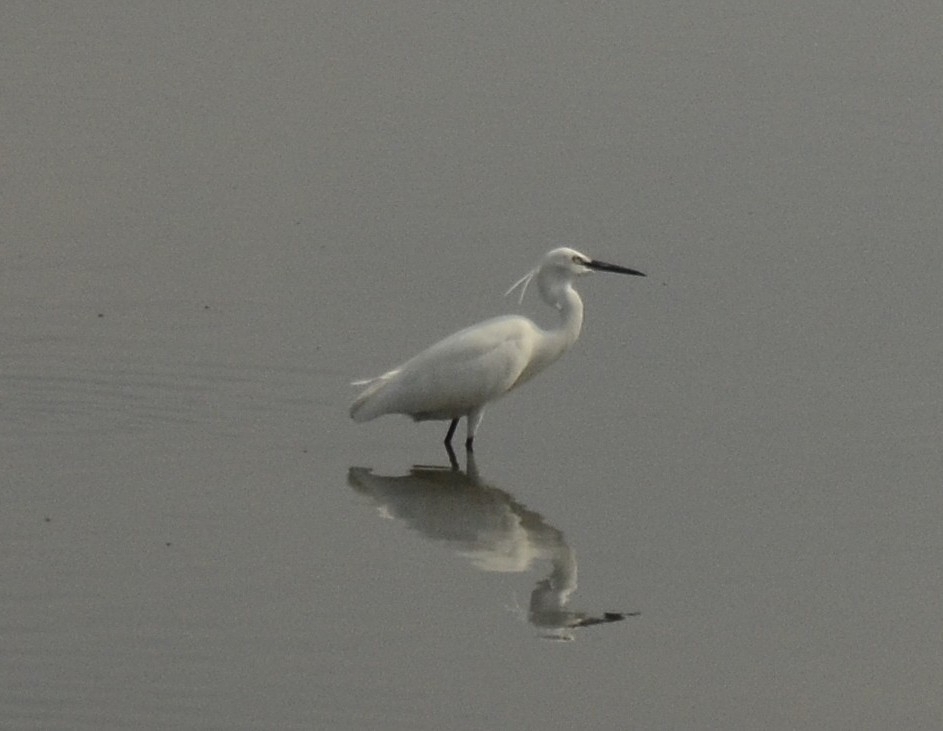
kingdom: Animalia
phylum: Chordata
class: Aves
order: Pelecaniformes
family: Ardeidae
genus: Egretta
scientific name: Egretta garzetta
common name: Little egret
